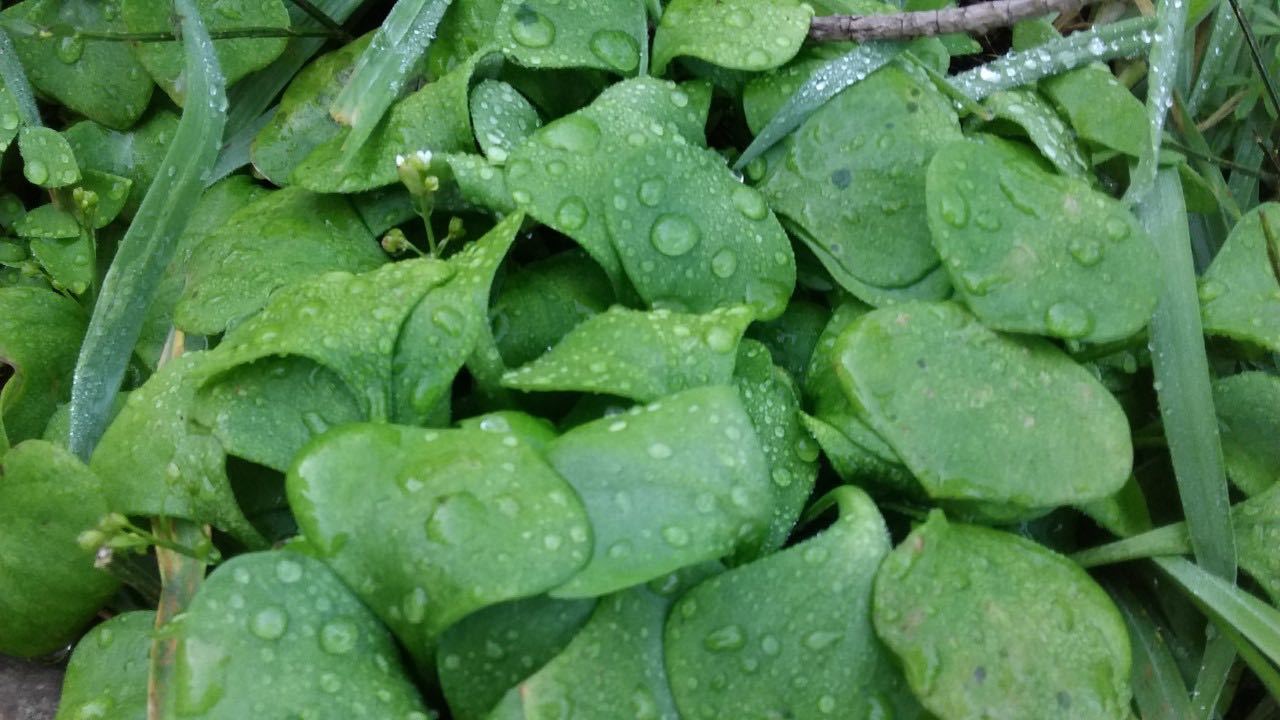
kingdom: Plantae
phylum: Tracheophyta
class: Magnoliopsida
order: Caryophyllales
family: Montiaceae
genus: Claytonia
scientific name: Claytonia perfoliata
